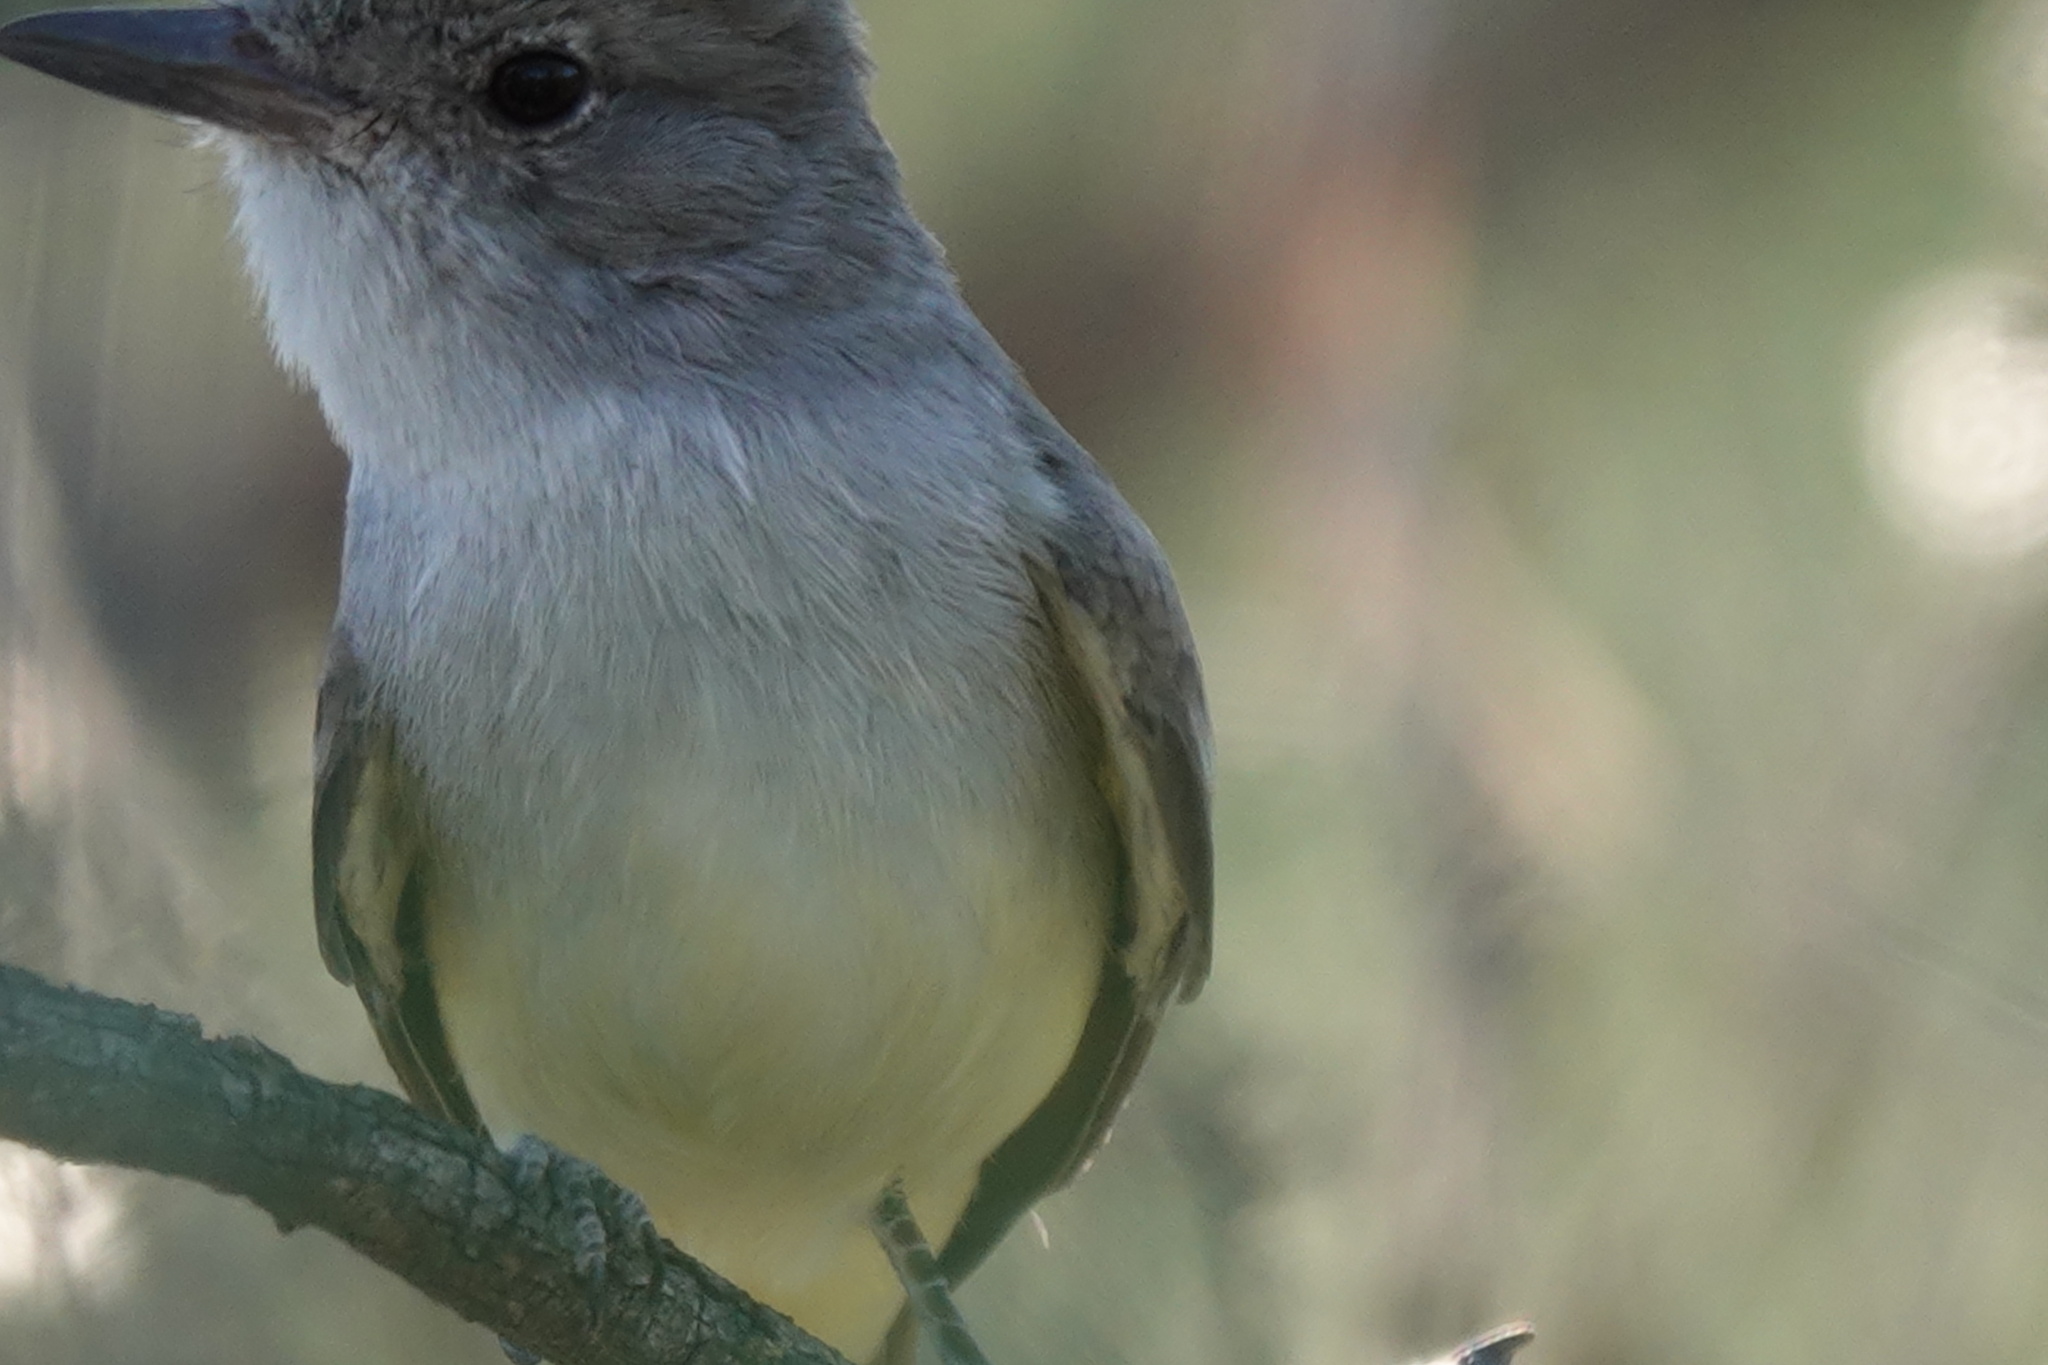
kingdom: Animalia
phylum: Chordata
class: Aves
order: Passeriformes
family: Tyrannidae
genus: Myiarchus
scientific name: Myiarchus cinerascens
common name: Ash-throated flycatcher
